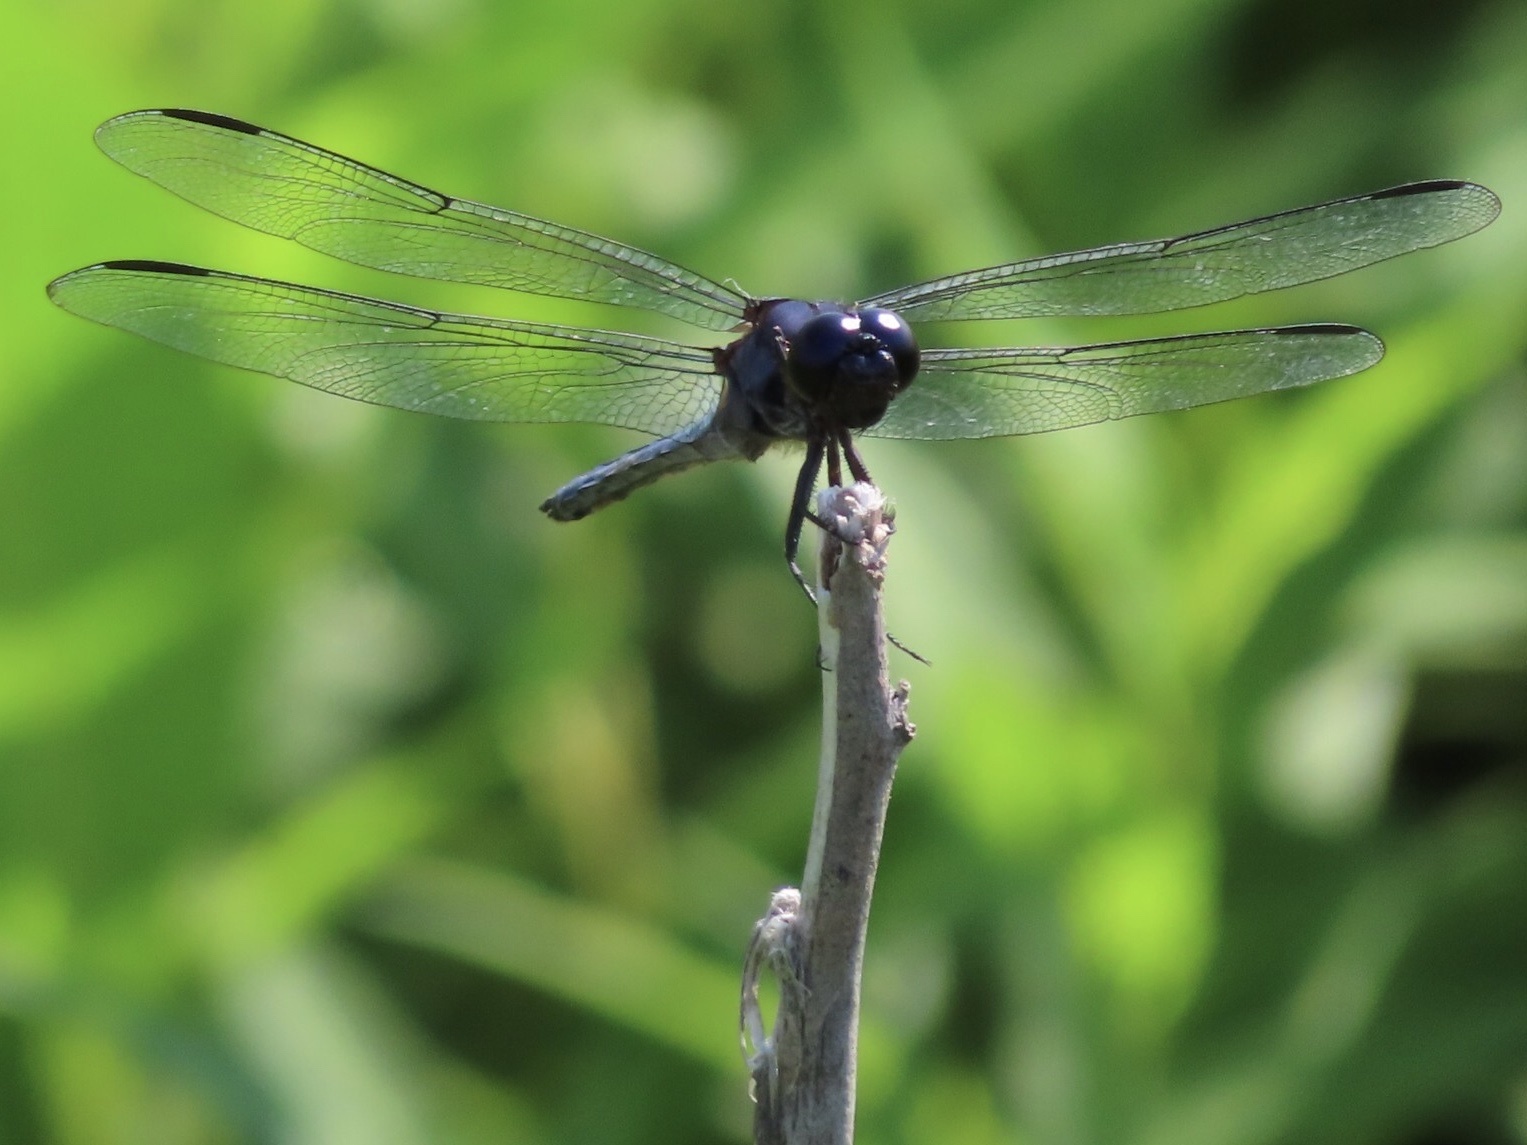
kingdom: Animalia
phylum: Arthropoda
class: Insecta
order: Odonata
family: Libellulidae
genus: Libellula
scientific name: Libellula incesta
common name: Slaty skimmer
